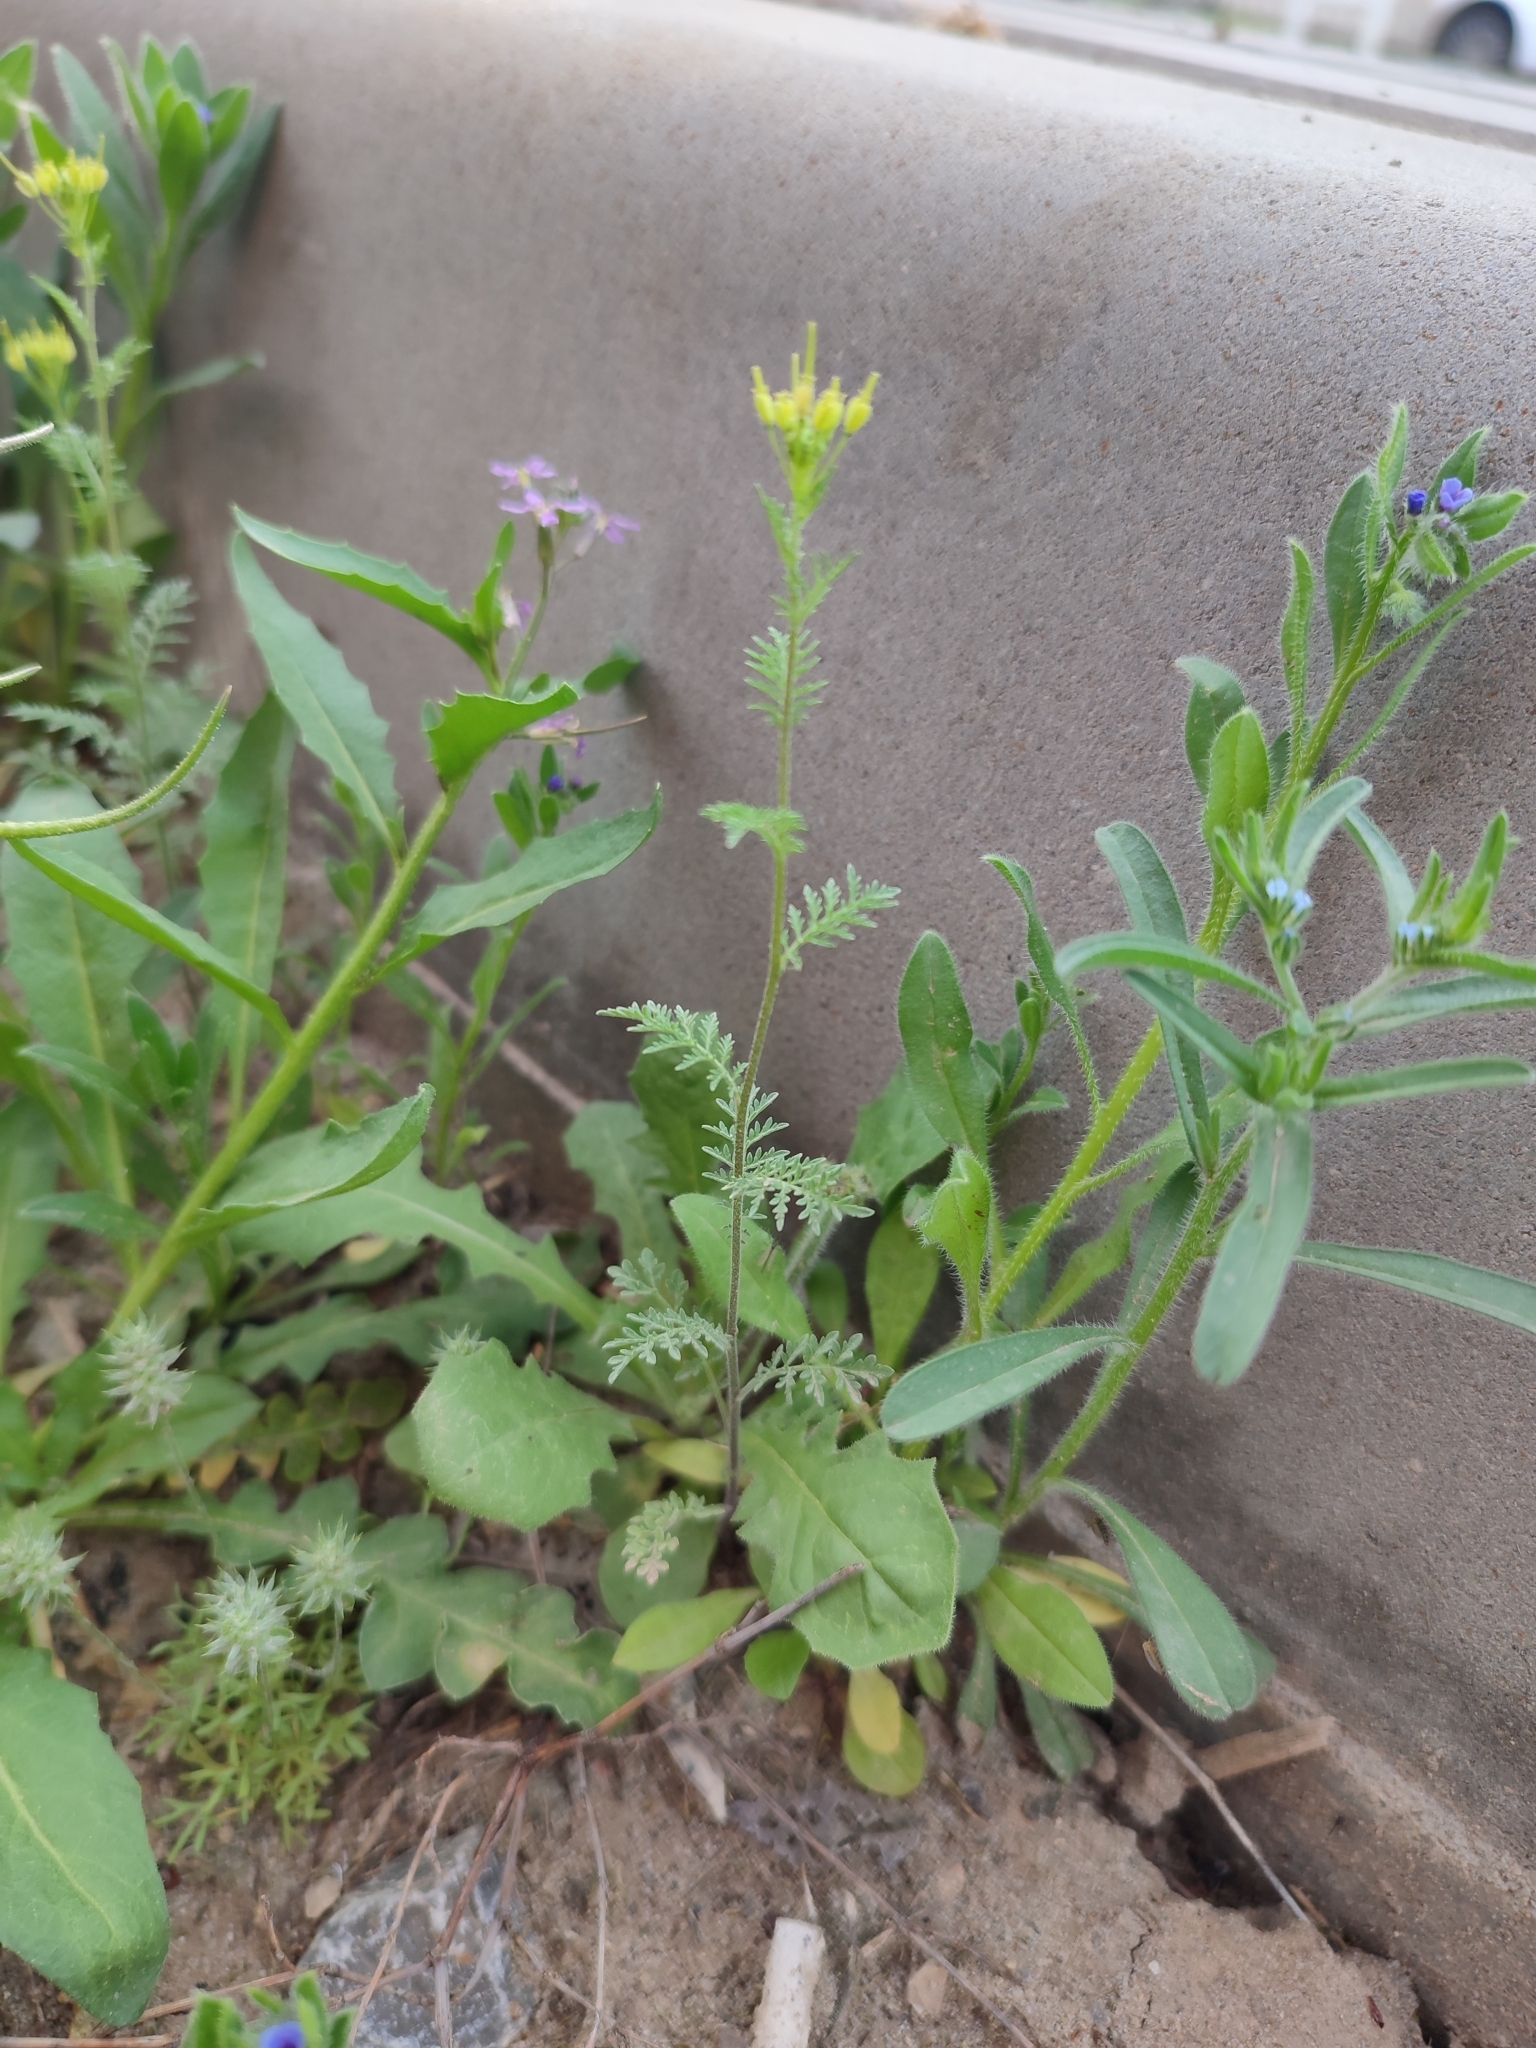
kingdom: Plantae
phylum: Tracheophyta
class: Magnoliopsida
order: Brassicales
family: Brassicaceae
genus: Descurainia
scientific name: Descurainia sophia
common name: Flixweed
